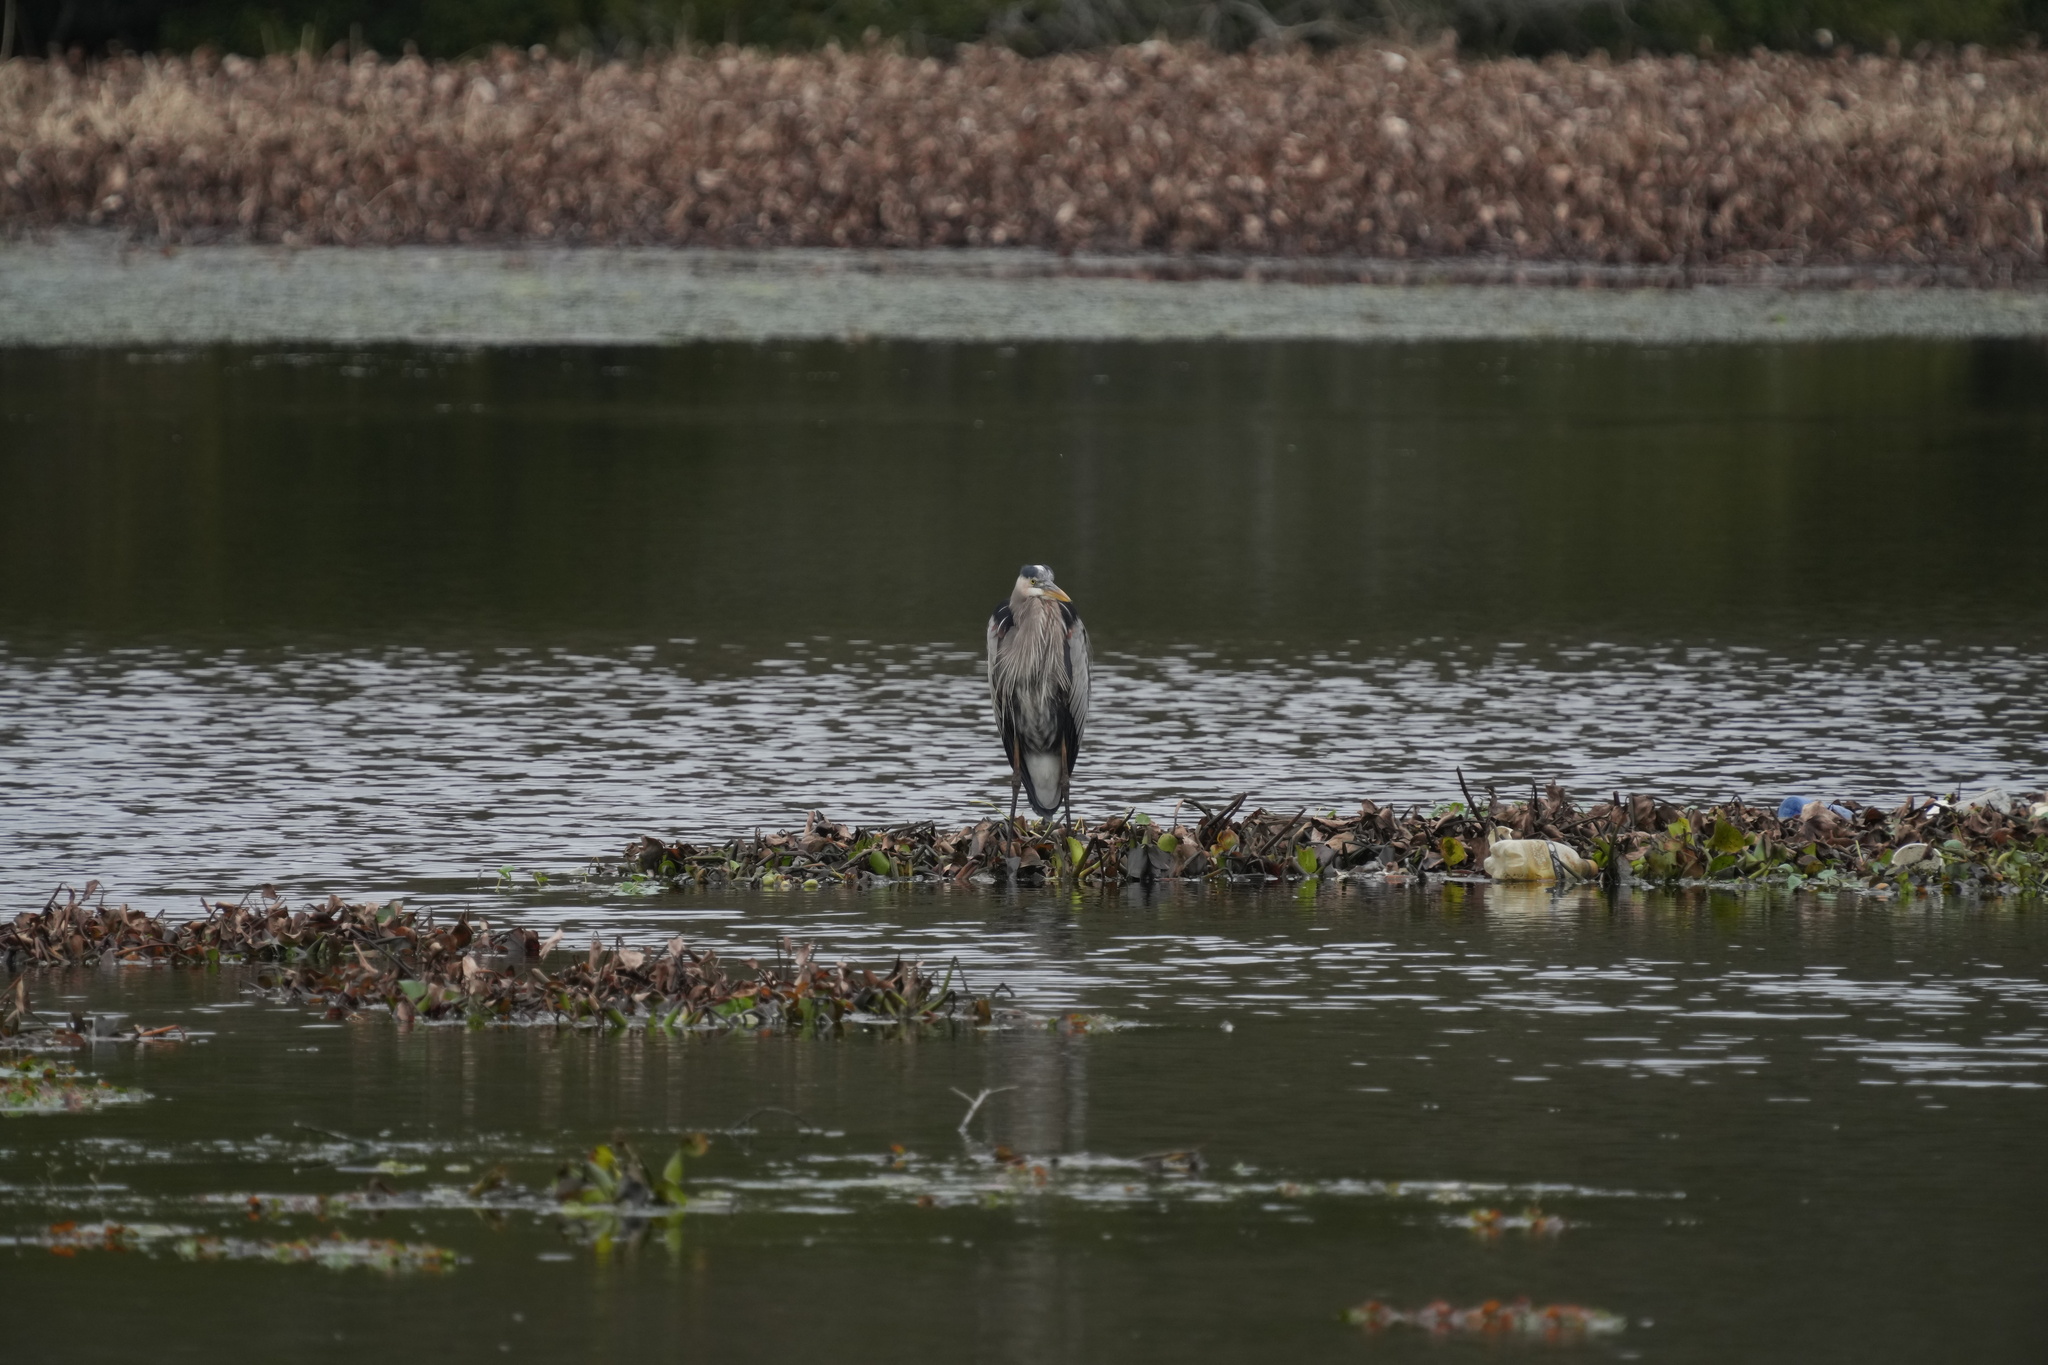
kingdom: Animalia
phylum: Chordata
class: Aves
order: Pelecaniformes
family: Ardeidae
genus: Ardea
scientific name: Ardea herodias
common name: Great blue heron
